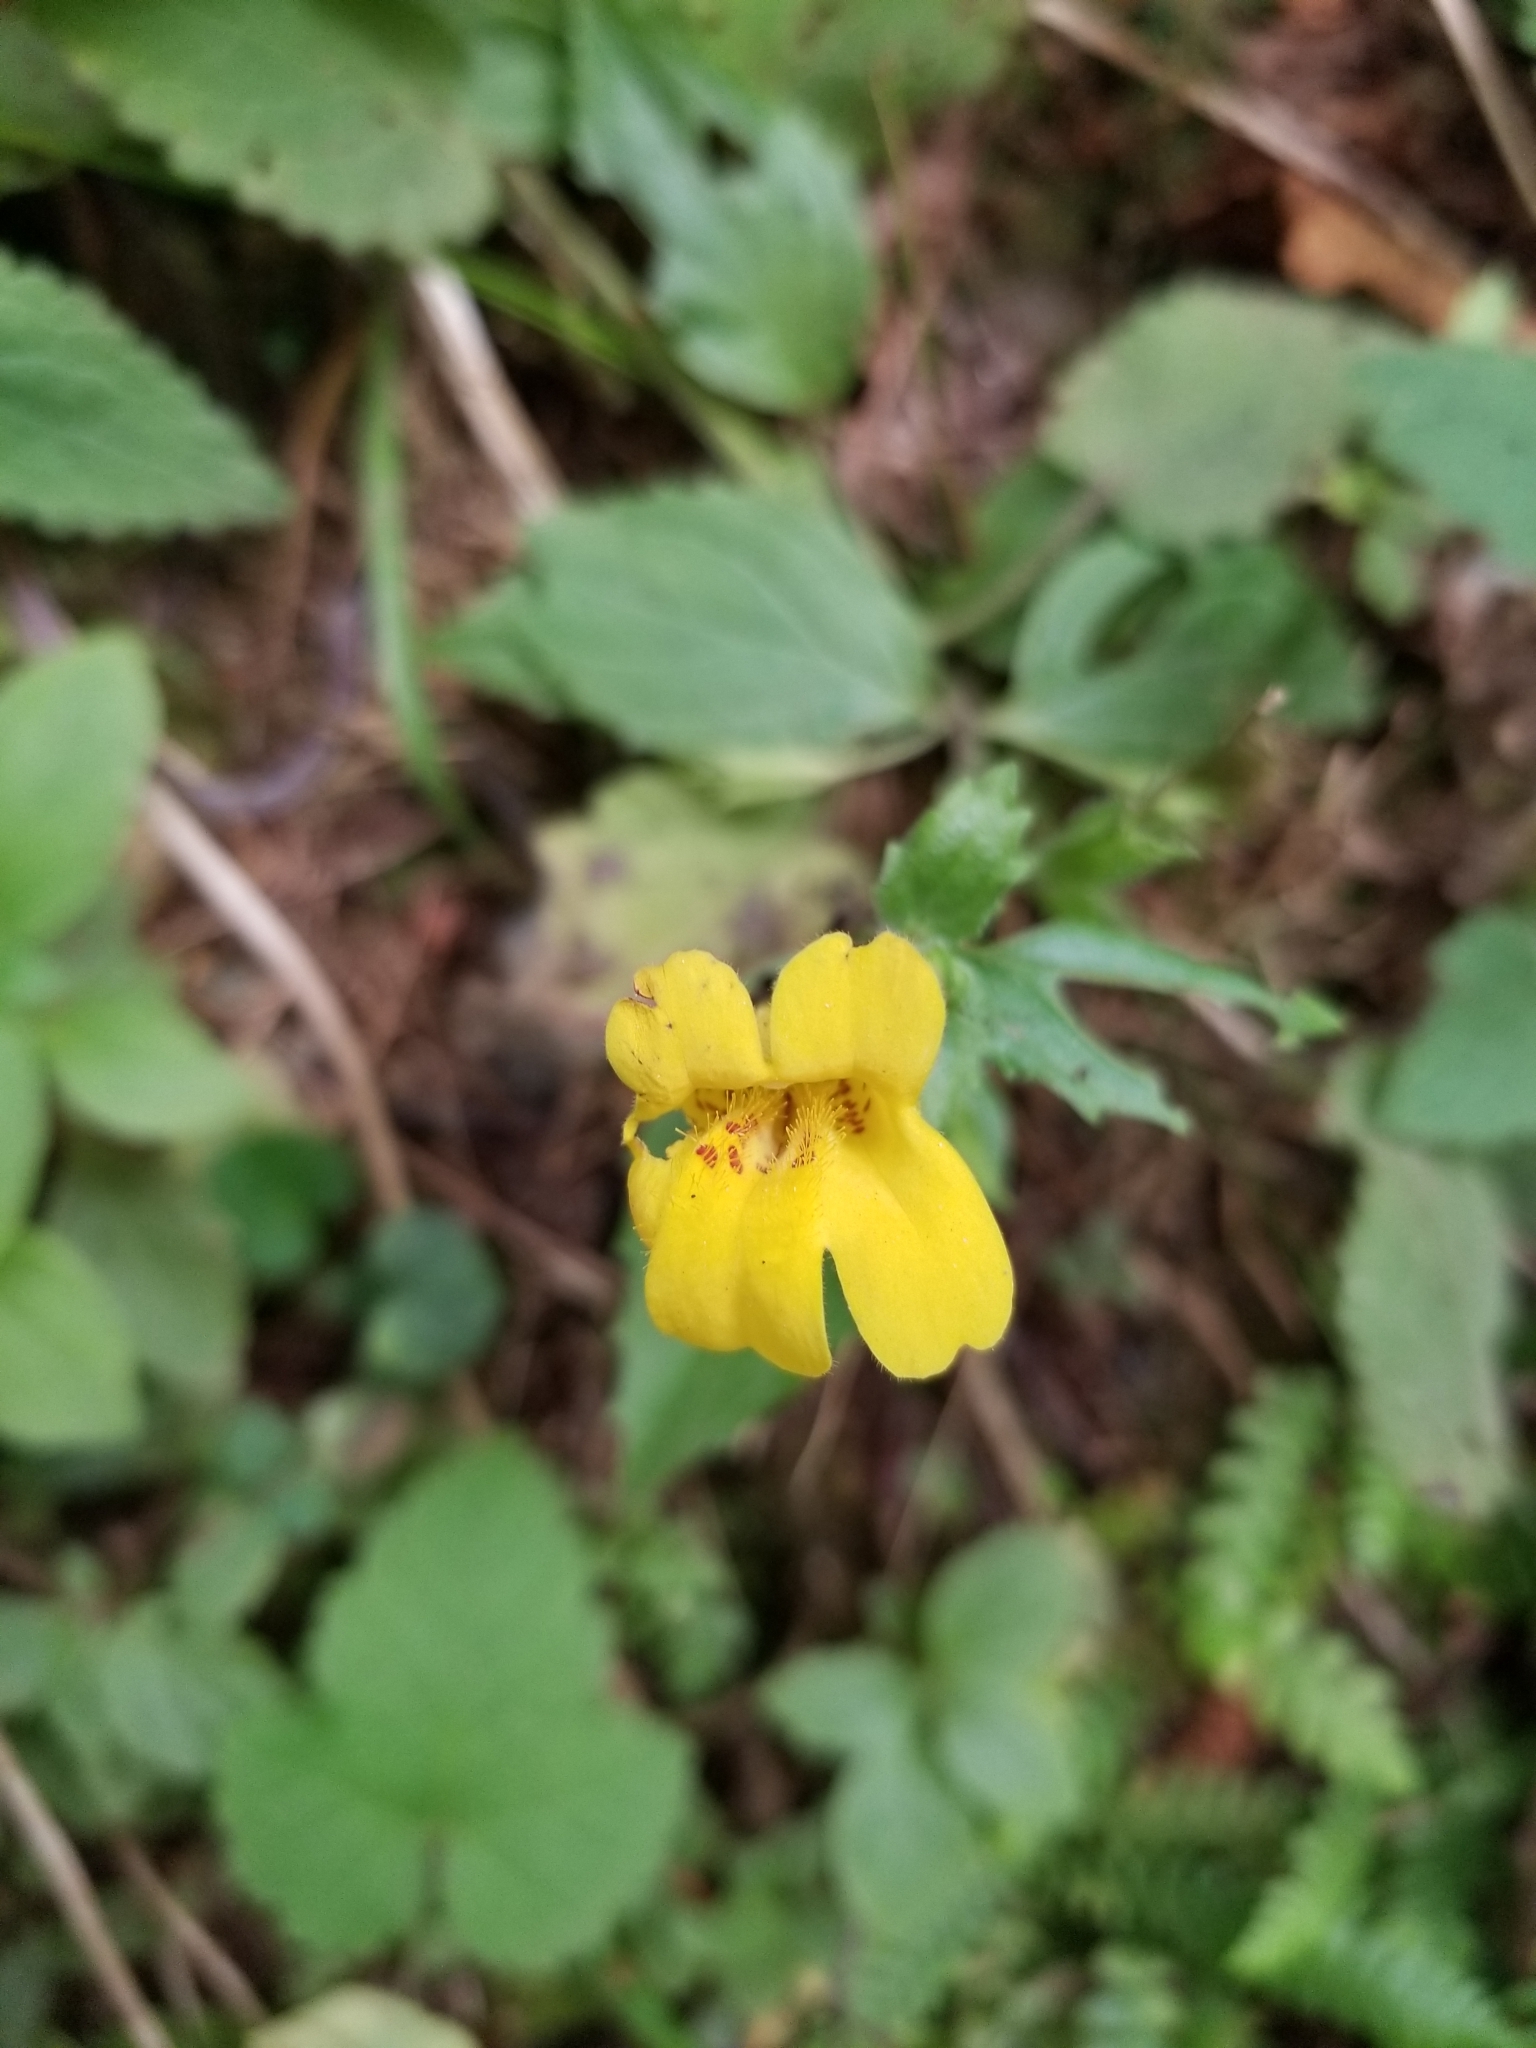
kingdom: Plantae
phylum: Tracheophyta
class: Magnoliopsida
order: Lamiales
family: Phrymaceae
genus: Erythranthe
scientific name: Erythranthe dentata
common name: Coastal monkeyflower
